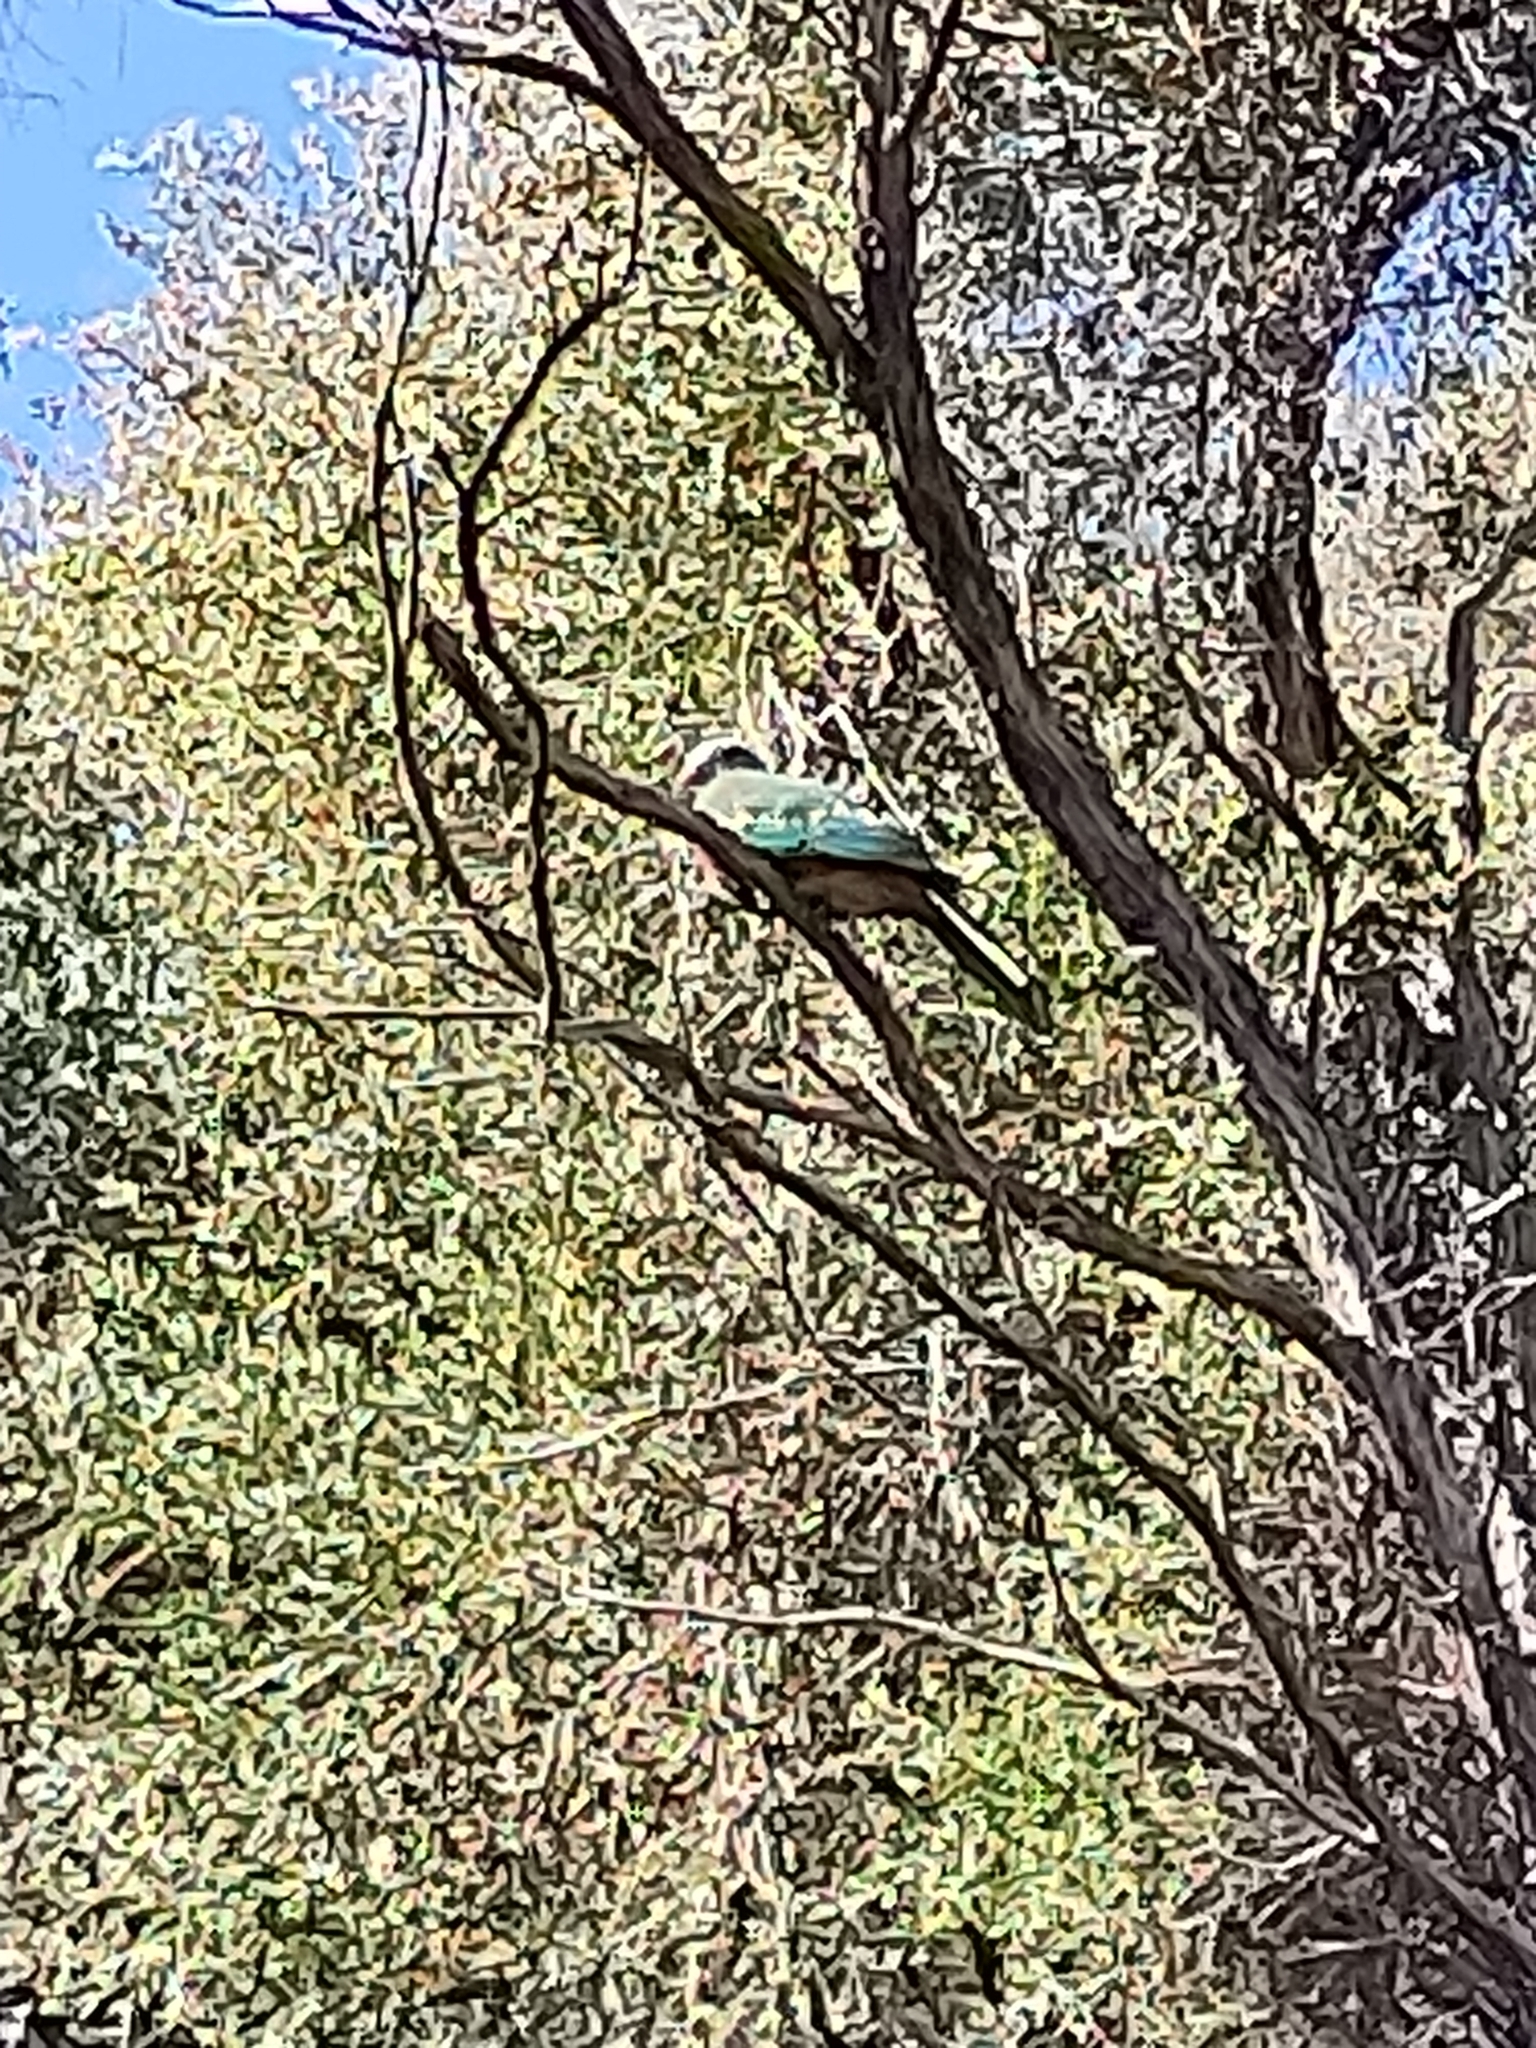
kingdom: Animalia
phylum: Chordata
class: Aves
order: Columbiformes
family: Columbidae
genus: Ptilinopus
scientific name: Ptilinopus magnificus
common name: Wompoo fruit dove
